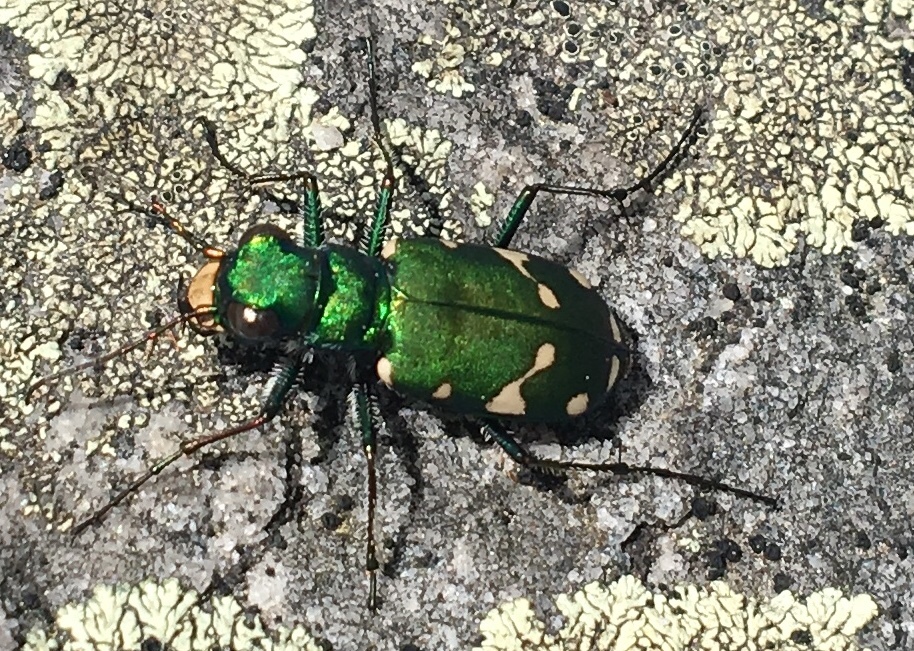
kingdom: Animalia
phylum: Arthropoda
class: Insecta
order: Coleoptera
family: Carabidae
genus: Cicindela
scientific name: Cicindela patruela
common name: Northern barrens tiger beetle
